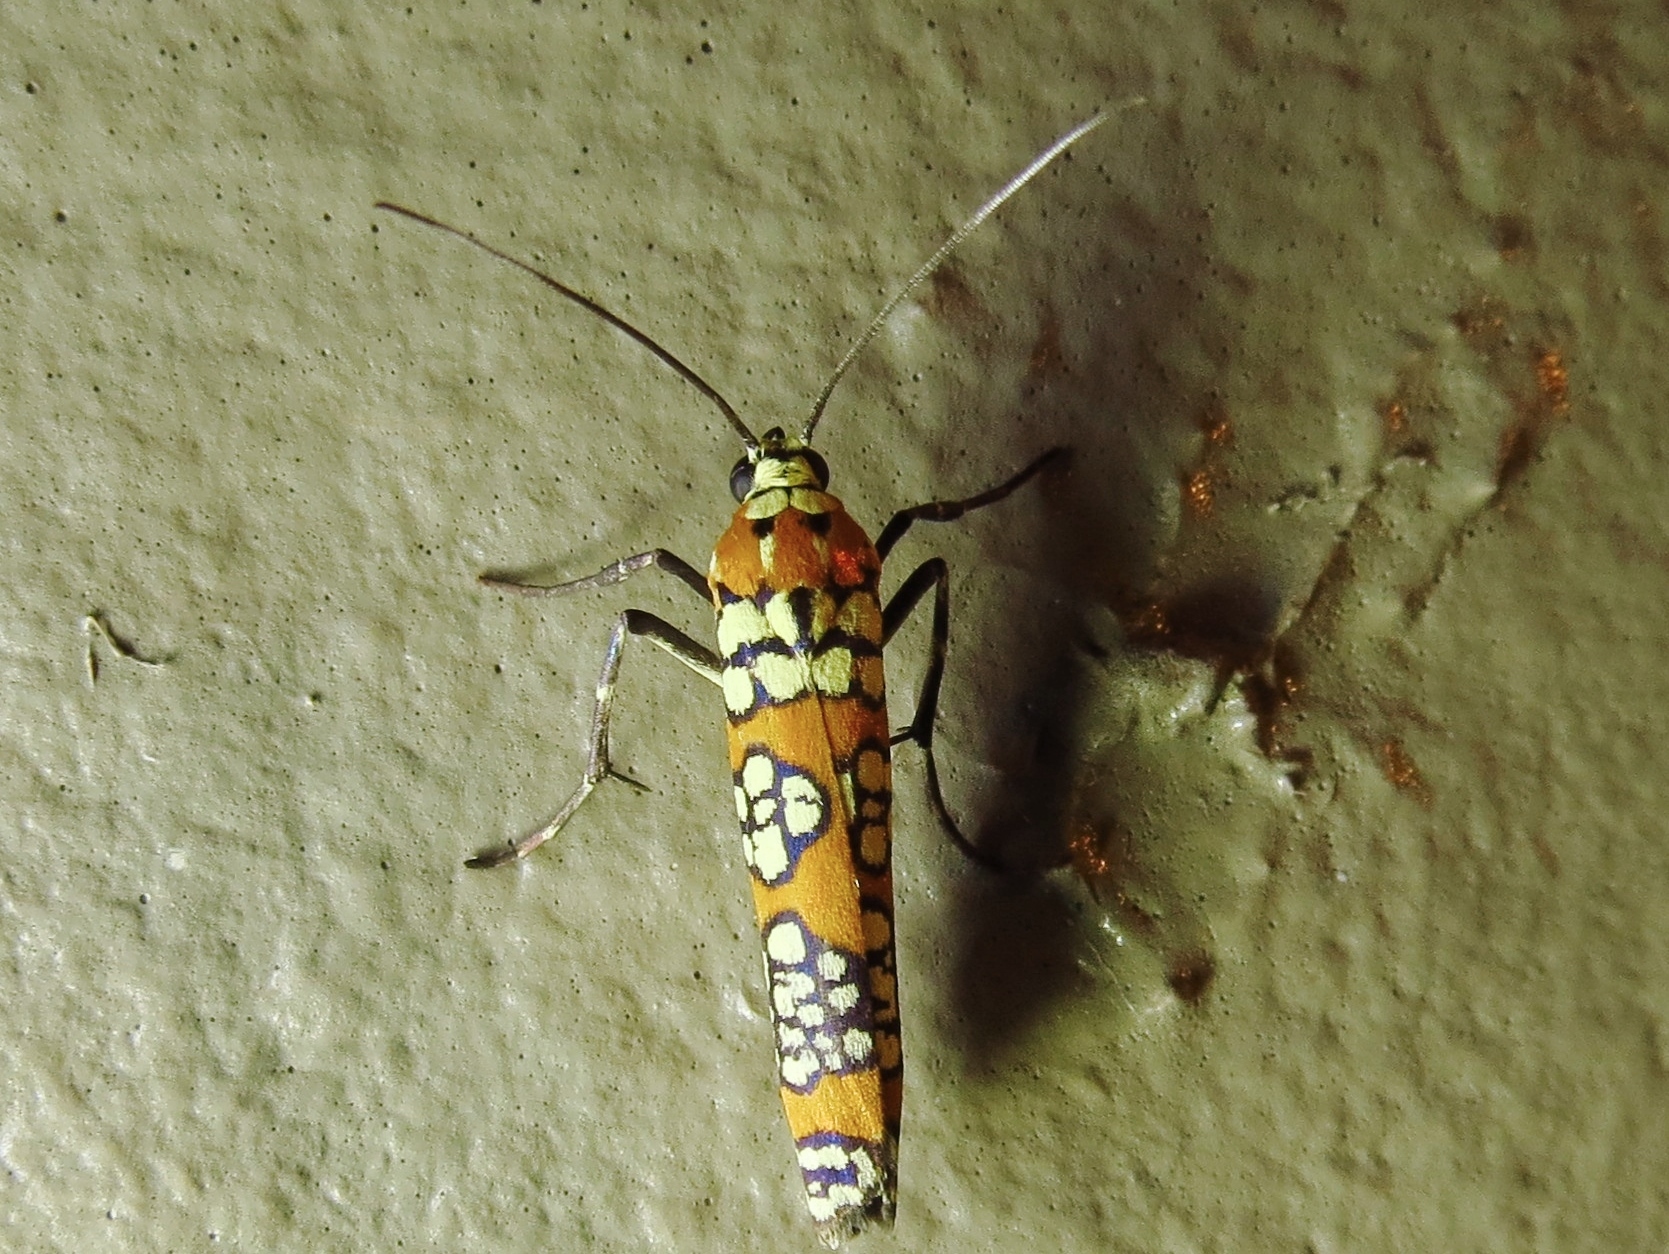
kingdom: Animalia
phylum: Arthropoda
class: Insecta
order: Lepidoptera
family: Attevidae
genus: Atteva
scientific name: Atteva punctella
